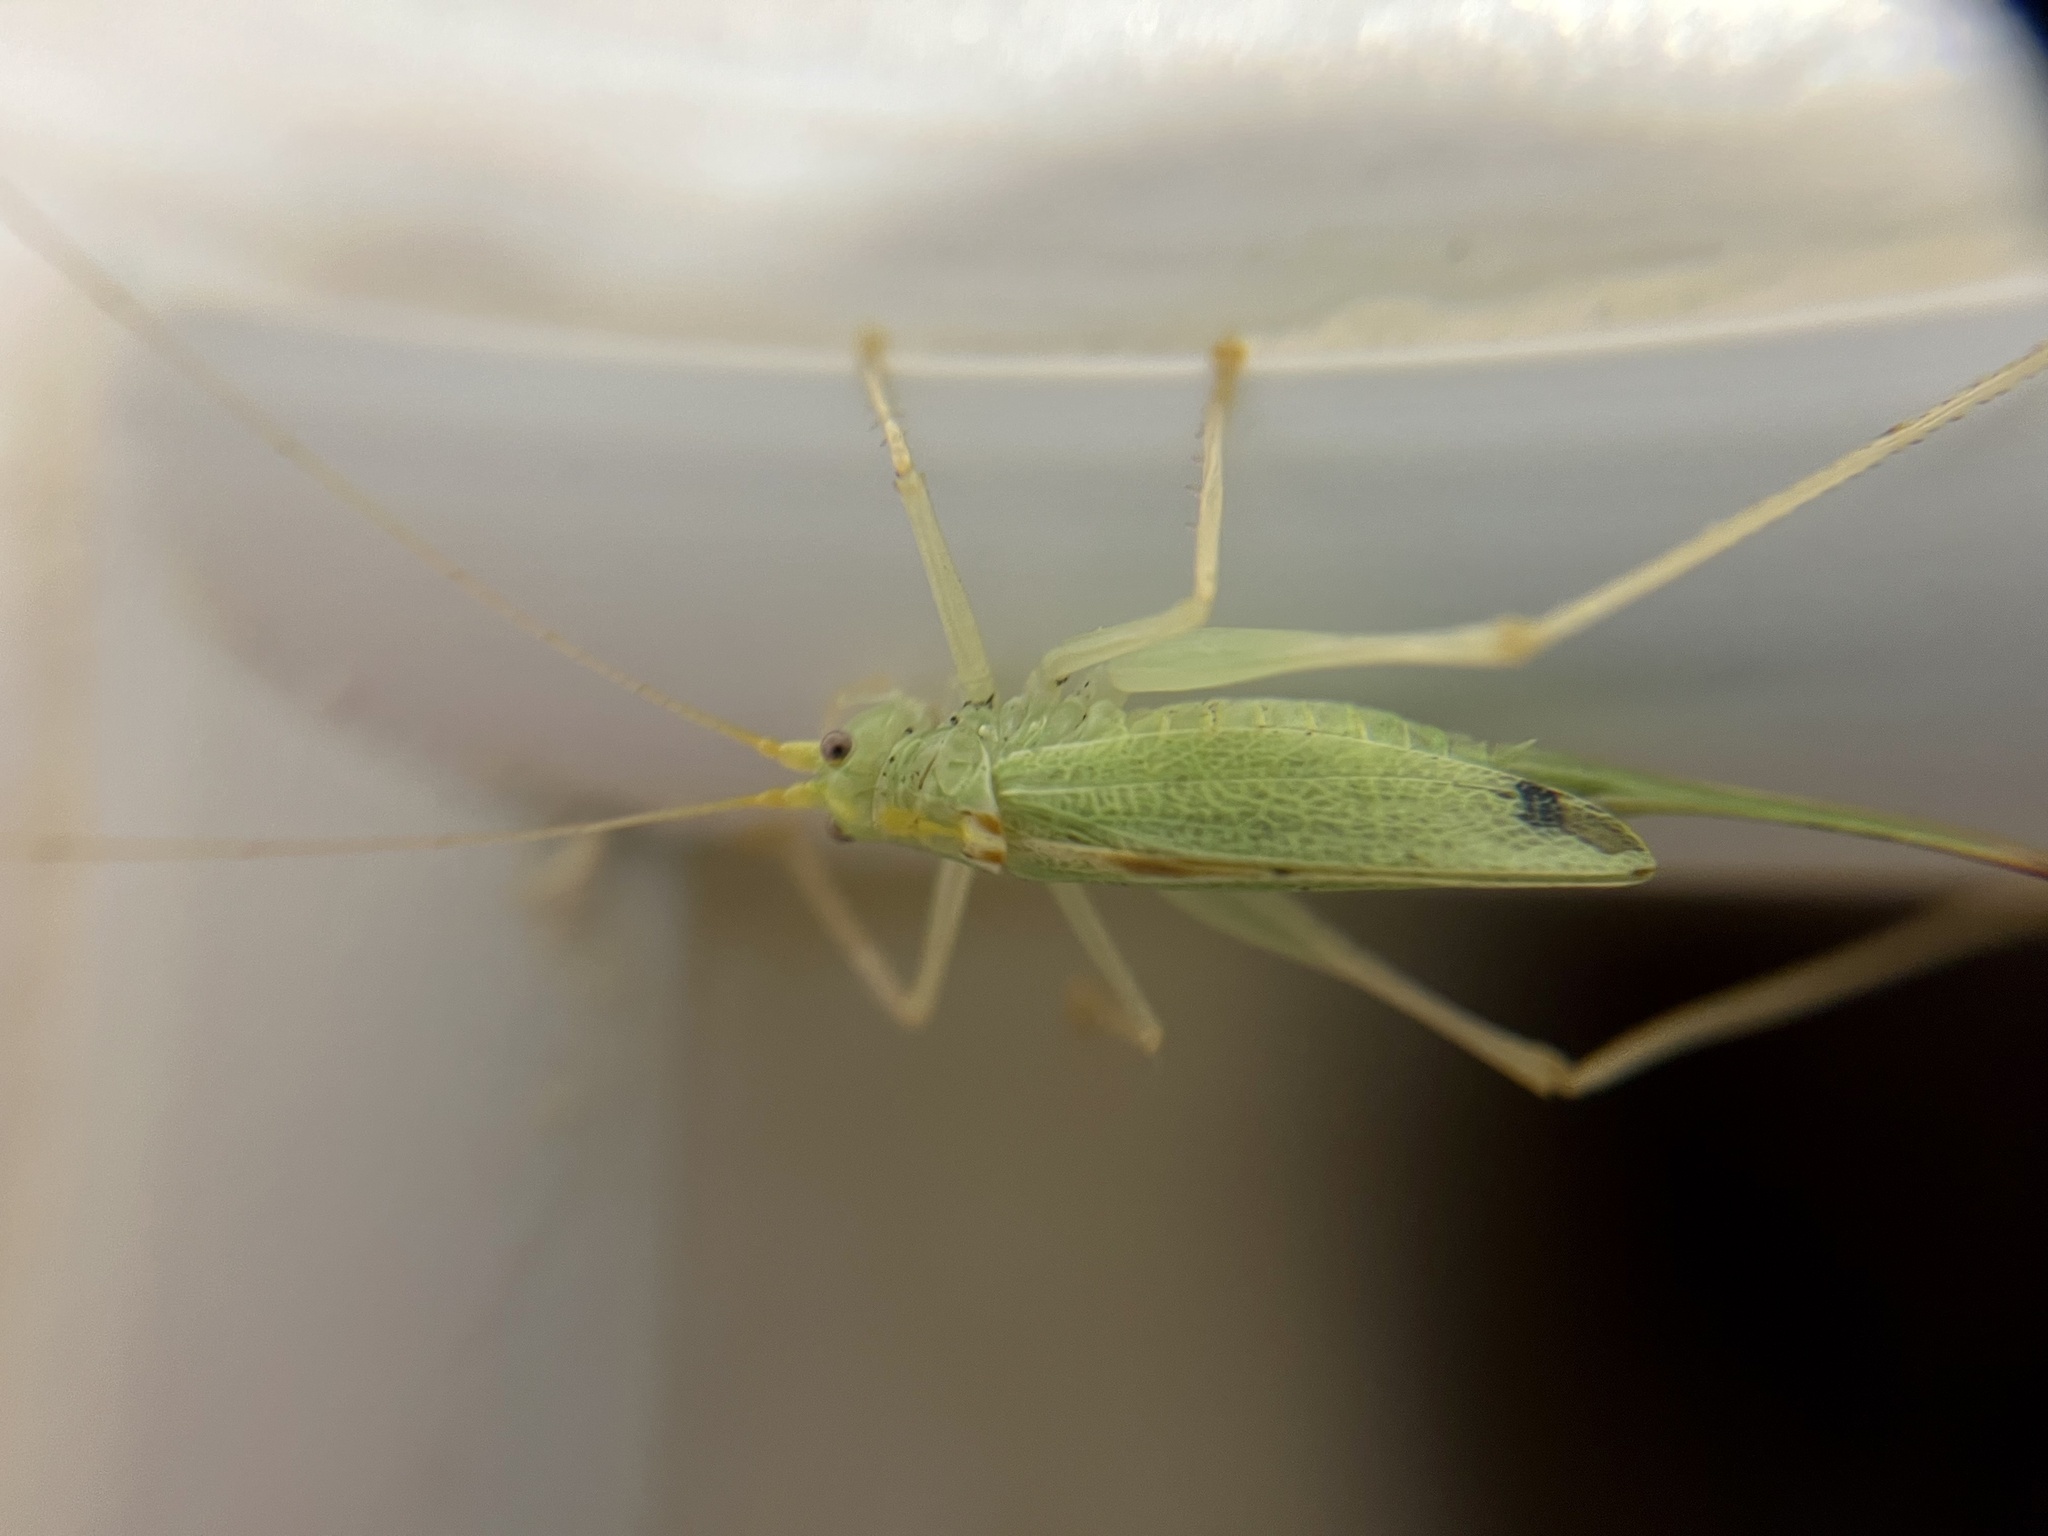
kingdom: Animalia
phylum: Arthropoda
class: Insecta
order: Orthoptera
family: Tettigoniidae
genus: Meconema
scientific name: Meconema thalassinum
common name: Oak bush-cricket
